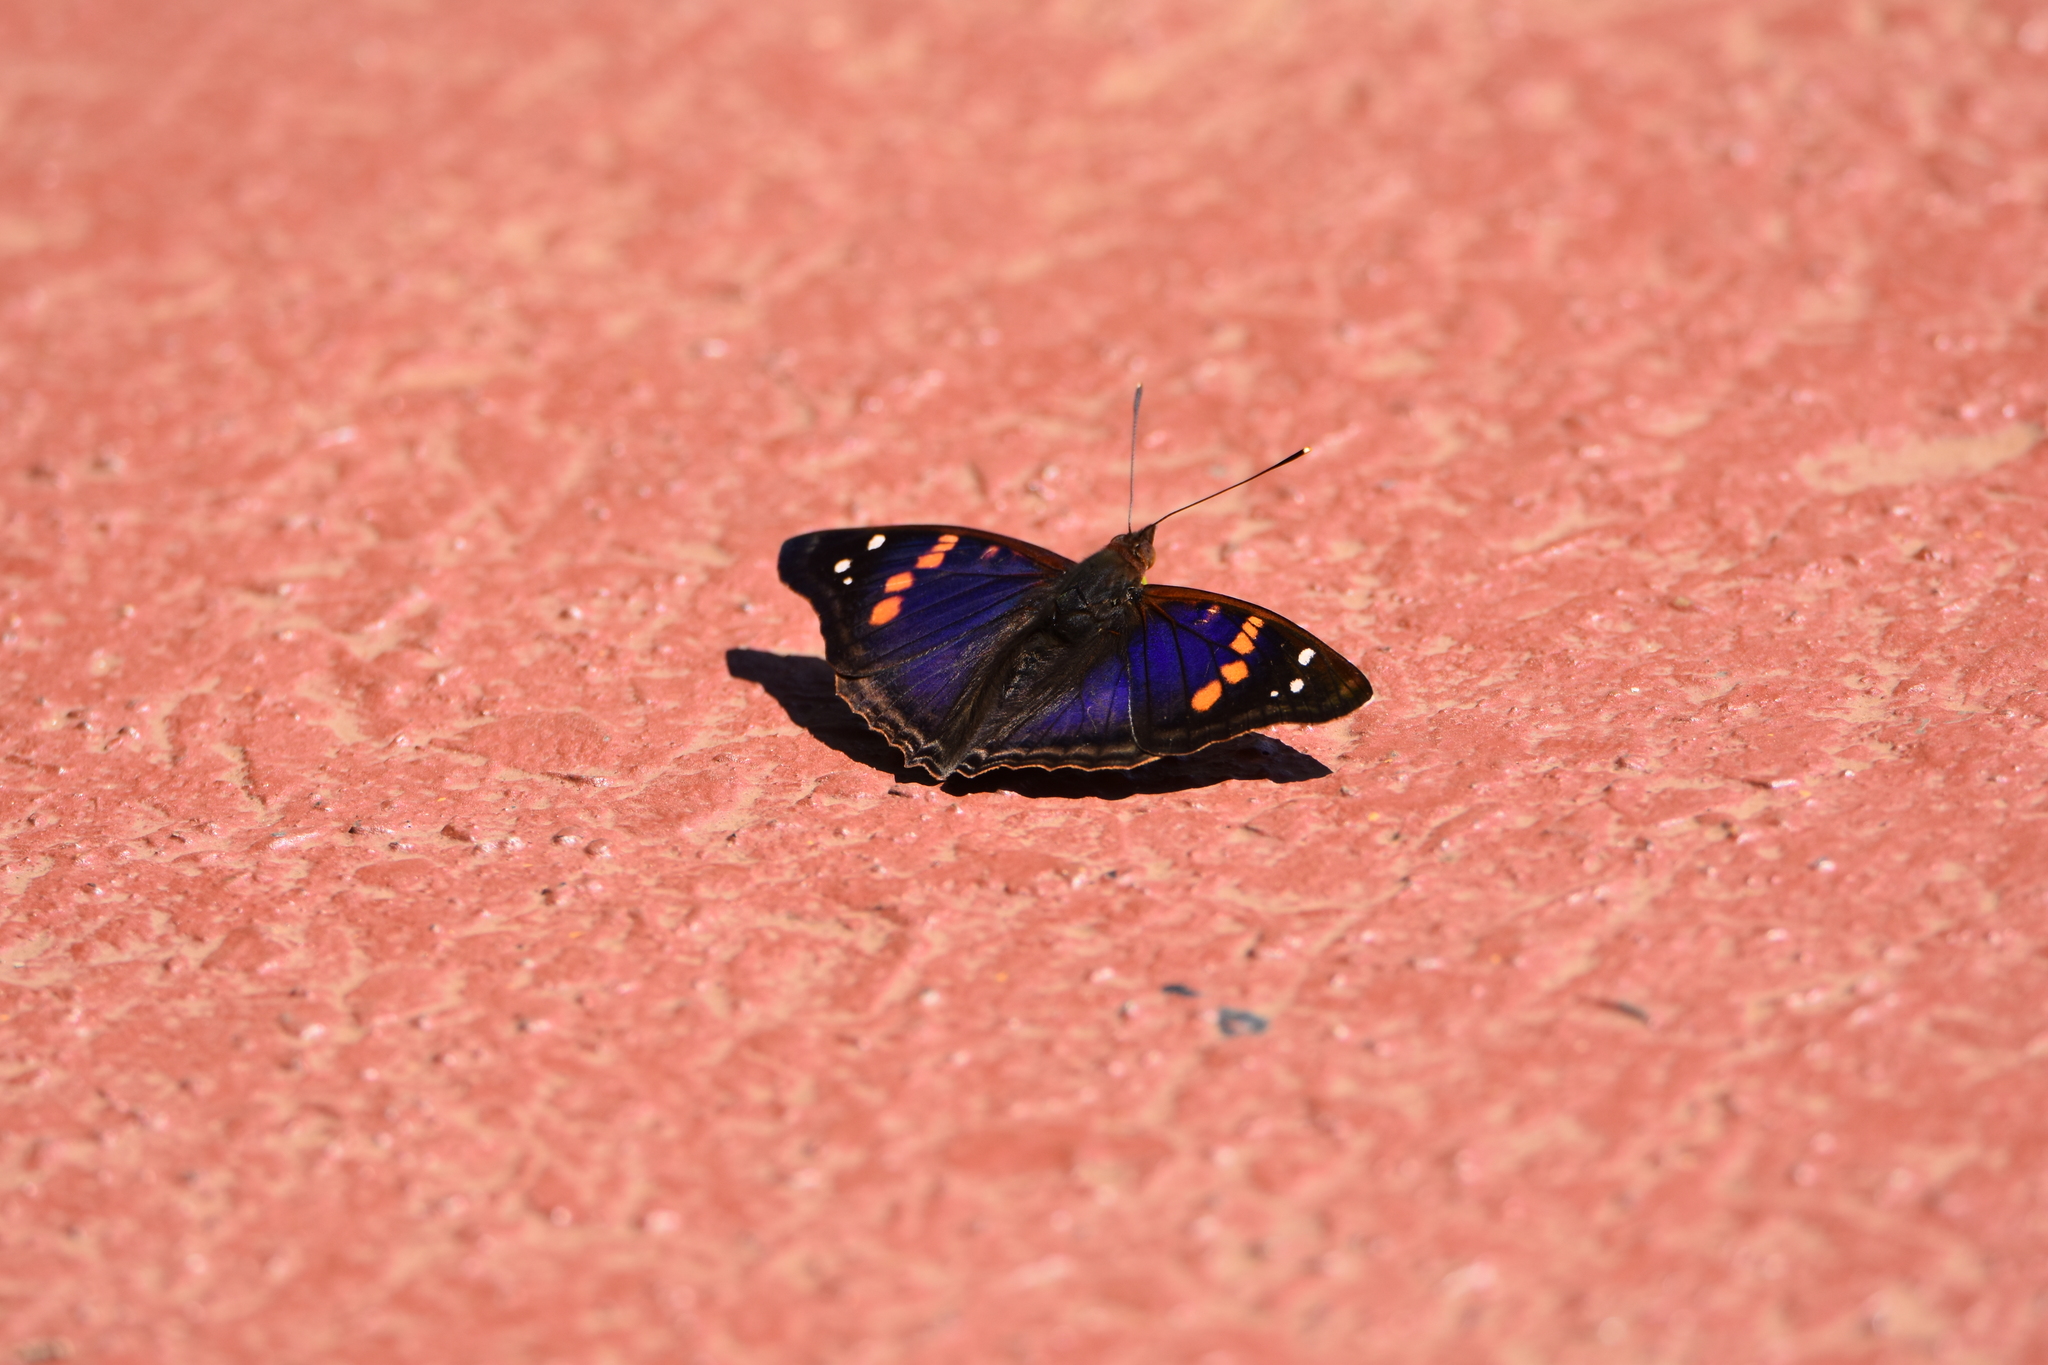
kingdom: Animalia
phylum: Arthropoda
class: Insecta
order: Lepidoptera
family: Nymphalidae
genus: Doxocopa
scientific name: Doxocopa agathina
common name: Agathina emperor
